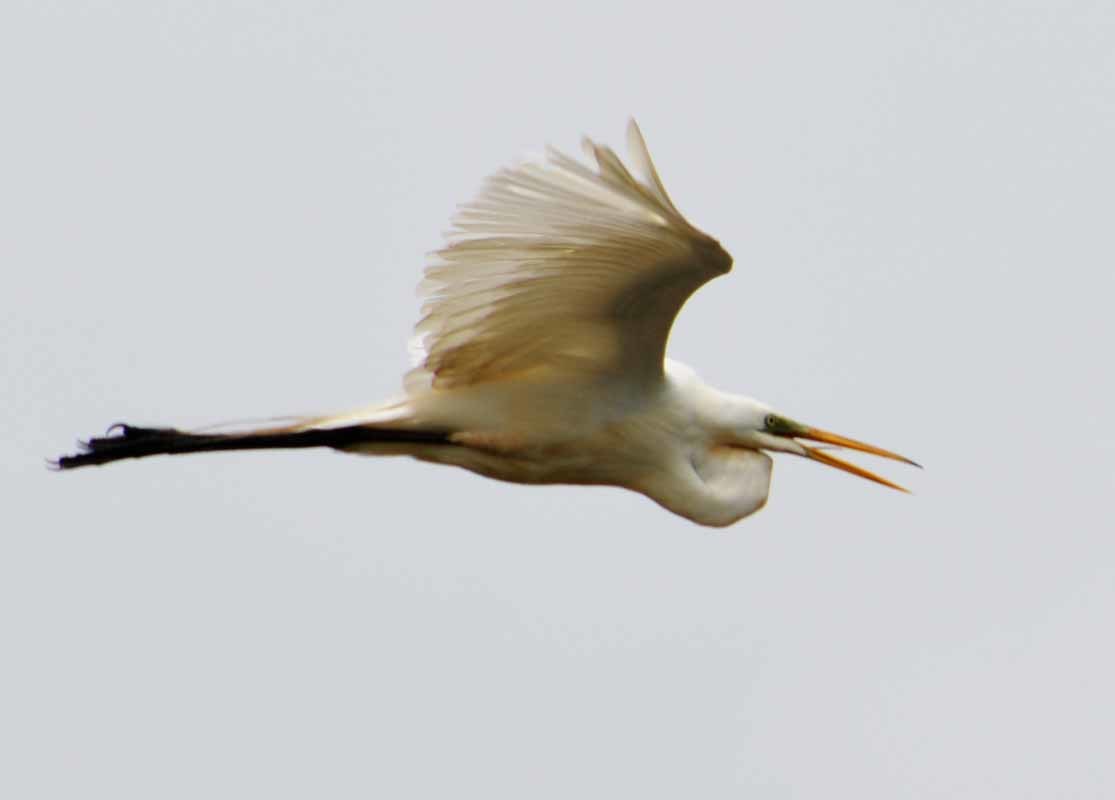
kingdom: Animalia
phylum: Chordata
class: Aves
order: Pelecaniformes
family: Ardeidae
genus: Ardea
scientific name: Ardea alba
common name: Great egret
